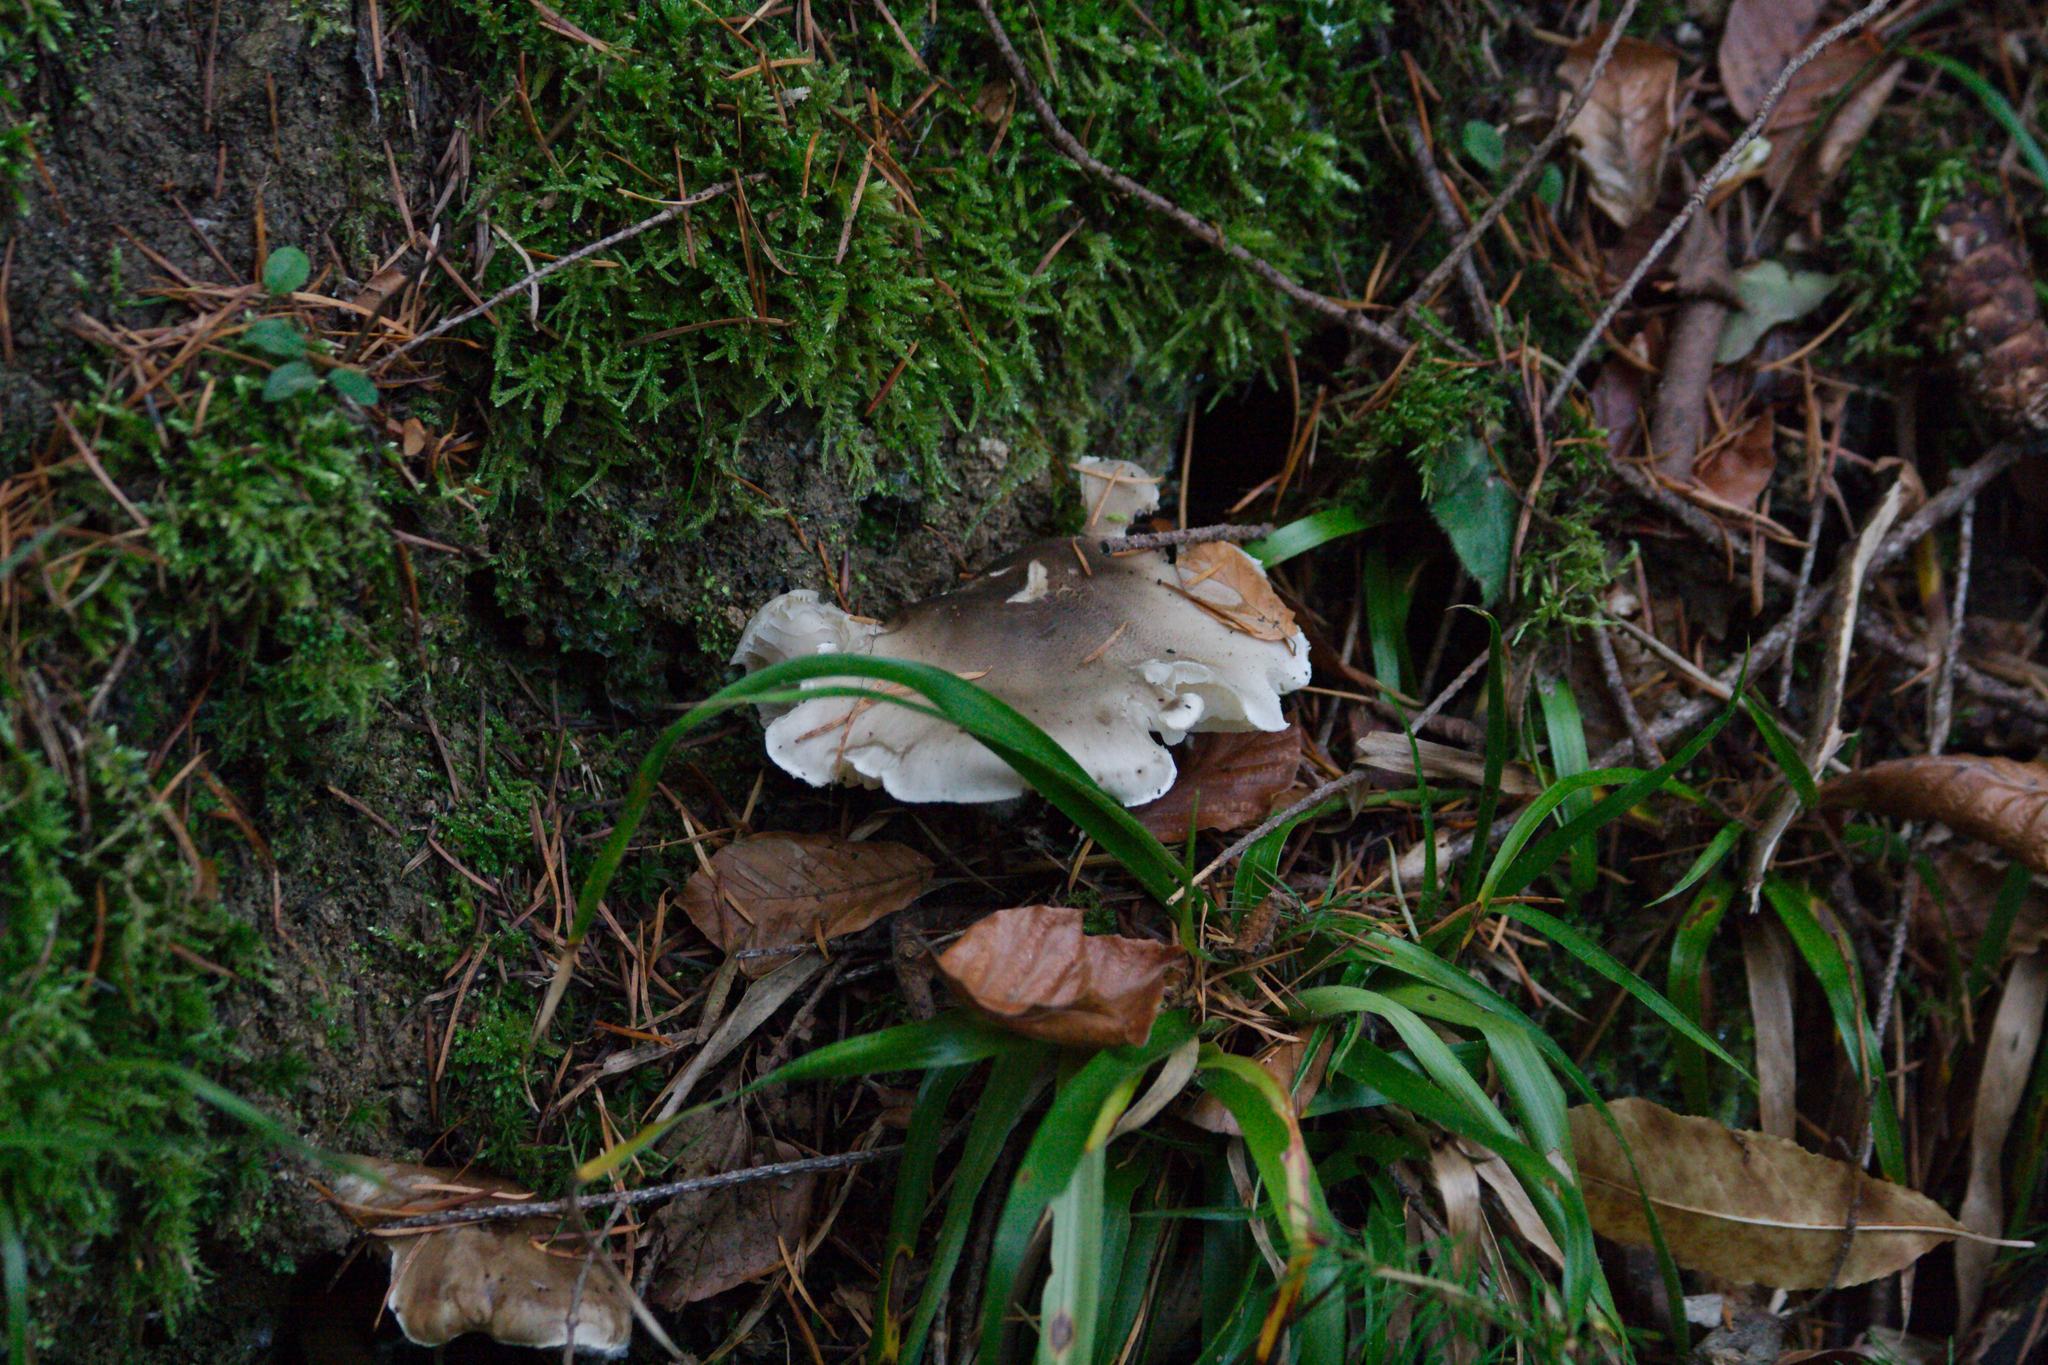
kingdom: Fungi
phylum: Basidiomycota
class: Agaricomycetes
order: Agaricales
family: Tricholomataceae
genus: Clitocybe
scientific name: Clitocybe nebularis
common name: Clouded agaric
